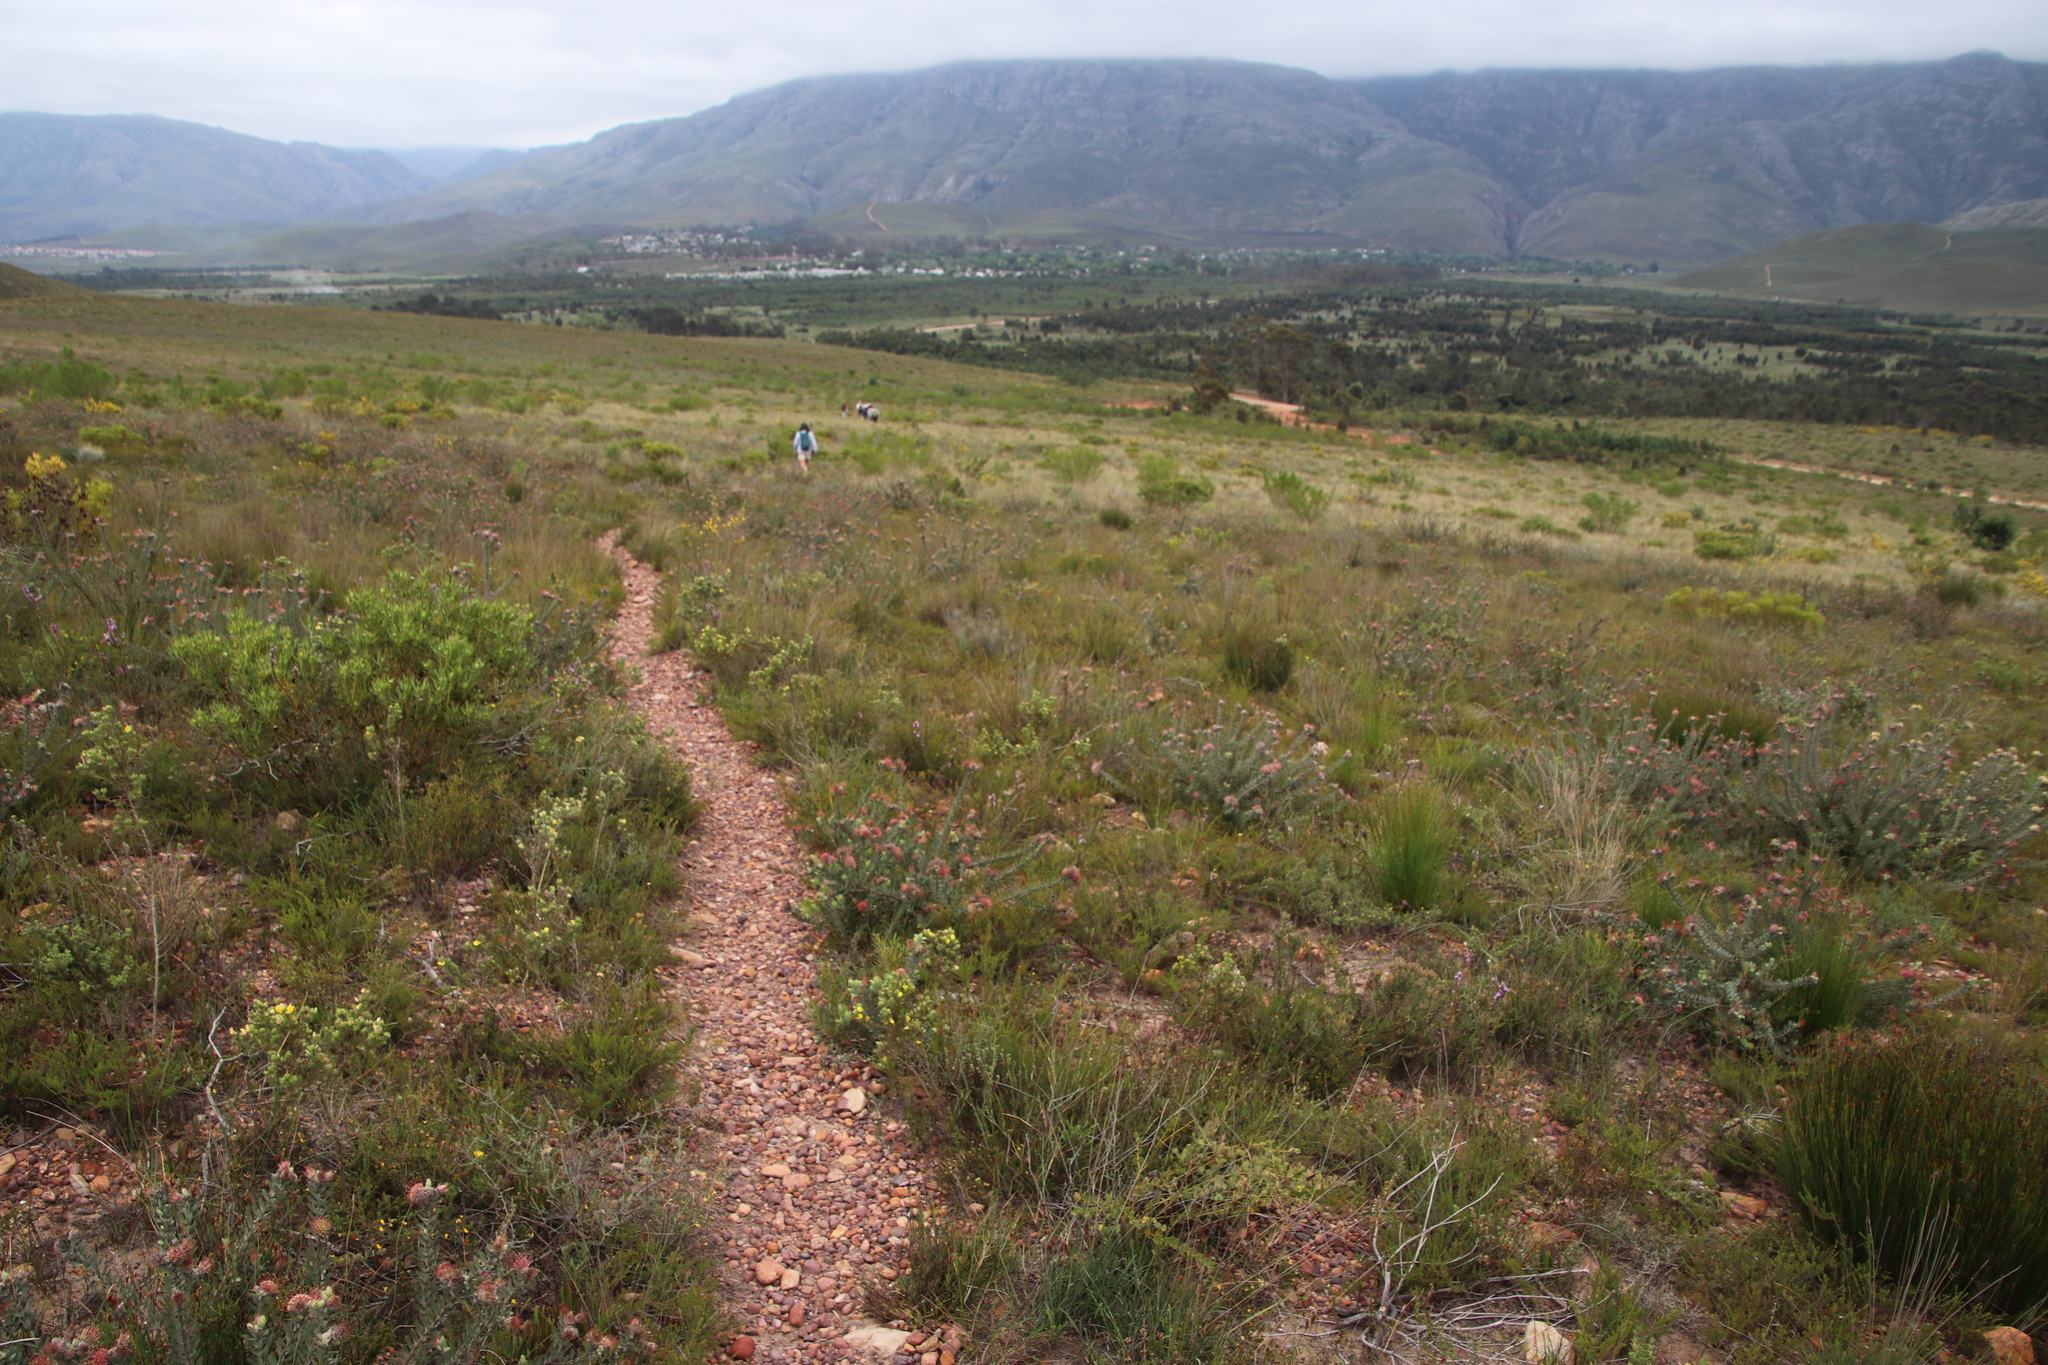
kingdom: Plantae
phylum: Tracheophyta
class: Magnoliopsida
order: Proteales
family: Proteaceae
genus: Leucadendron
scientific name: Leucadendron salignum
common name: Common sunshine conebush
